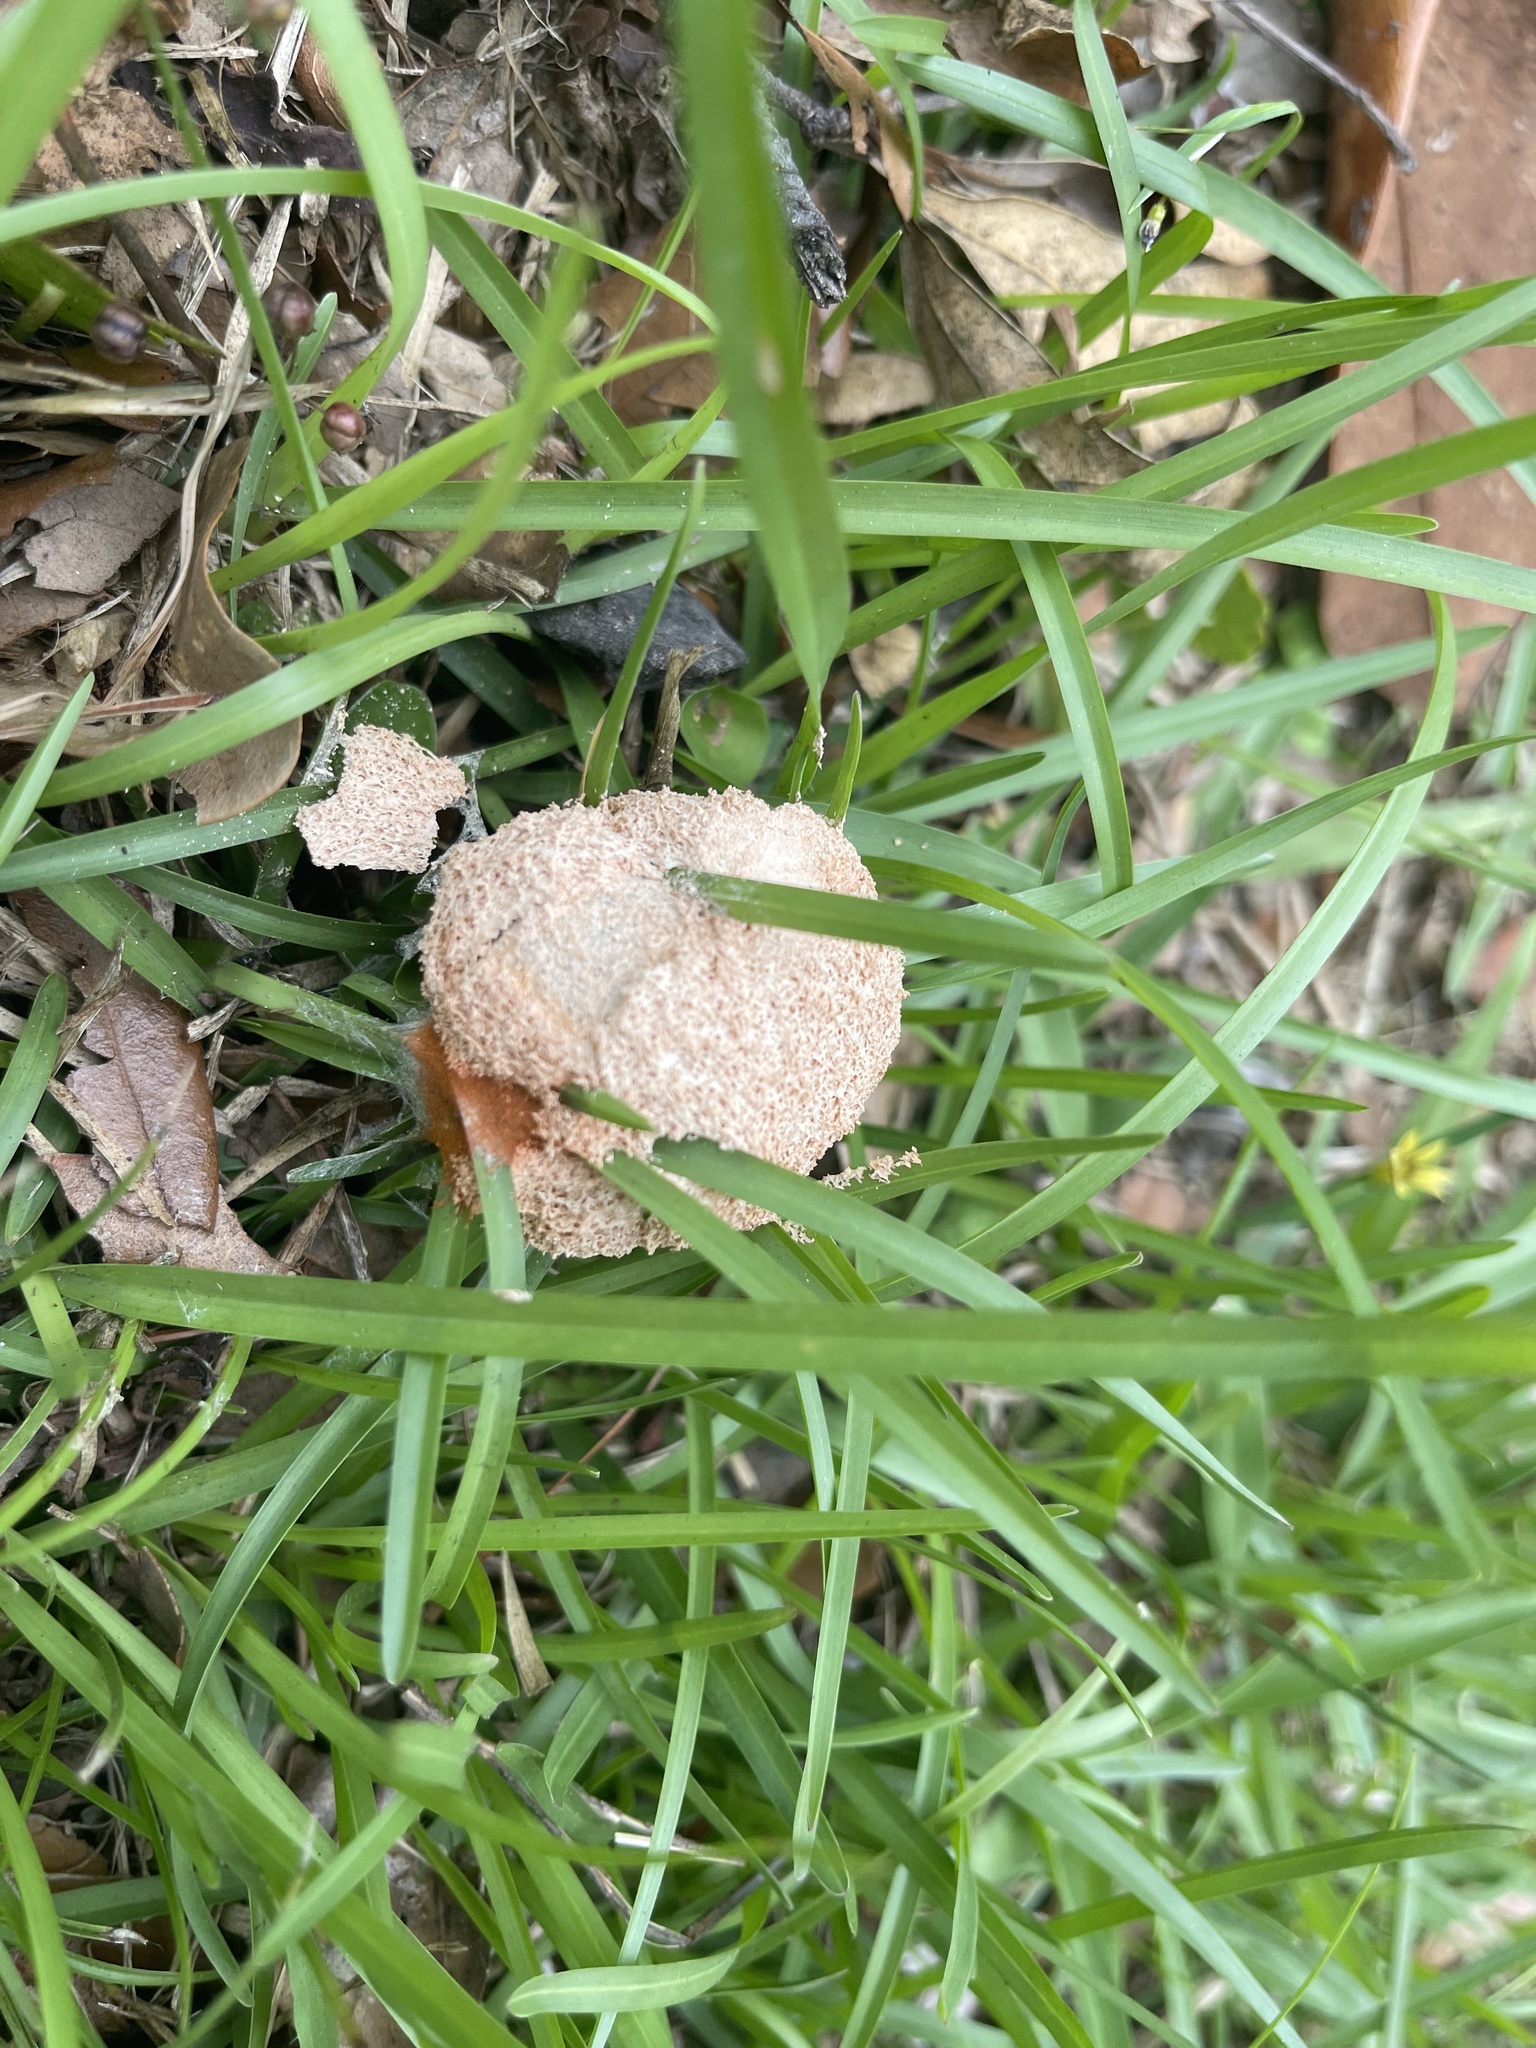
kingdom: Protozoa
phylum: Mycetozoa
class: Myxomycetes
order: Physarales
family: Physaraceae
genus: Fuligo
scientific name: Fuligo septica
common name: Dog vomit slime mold
